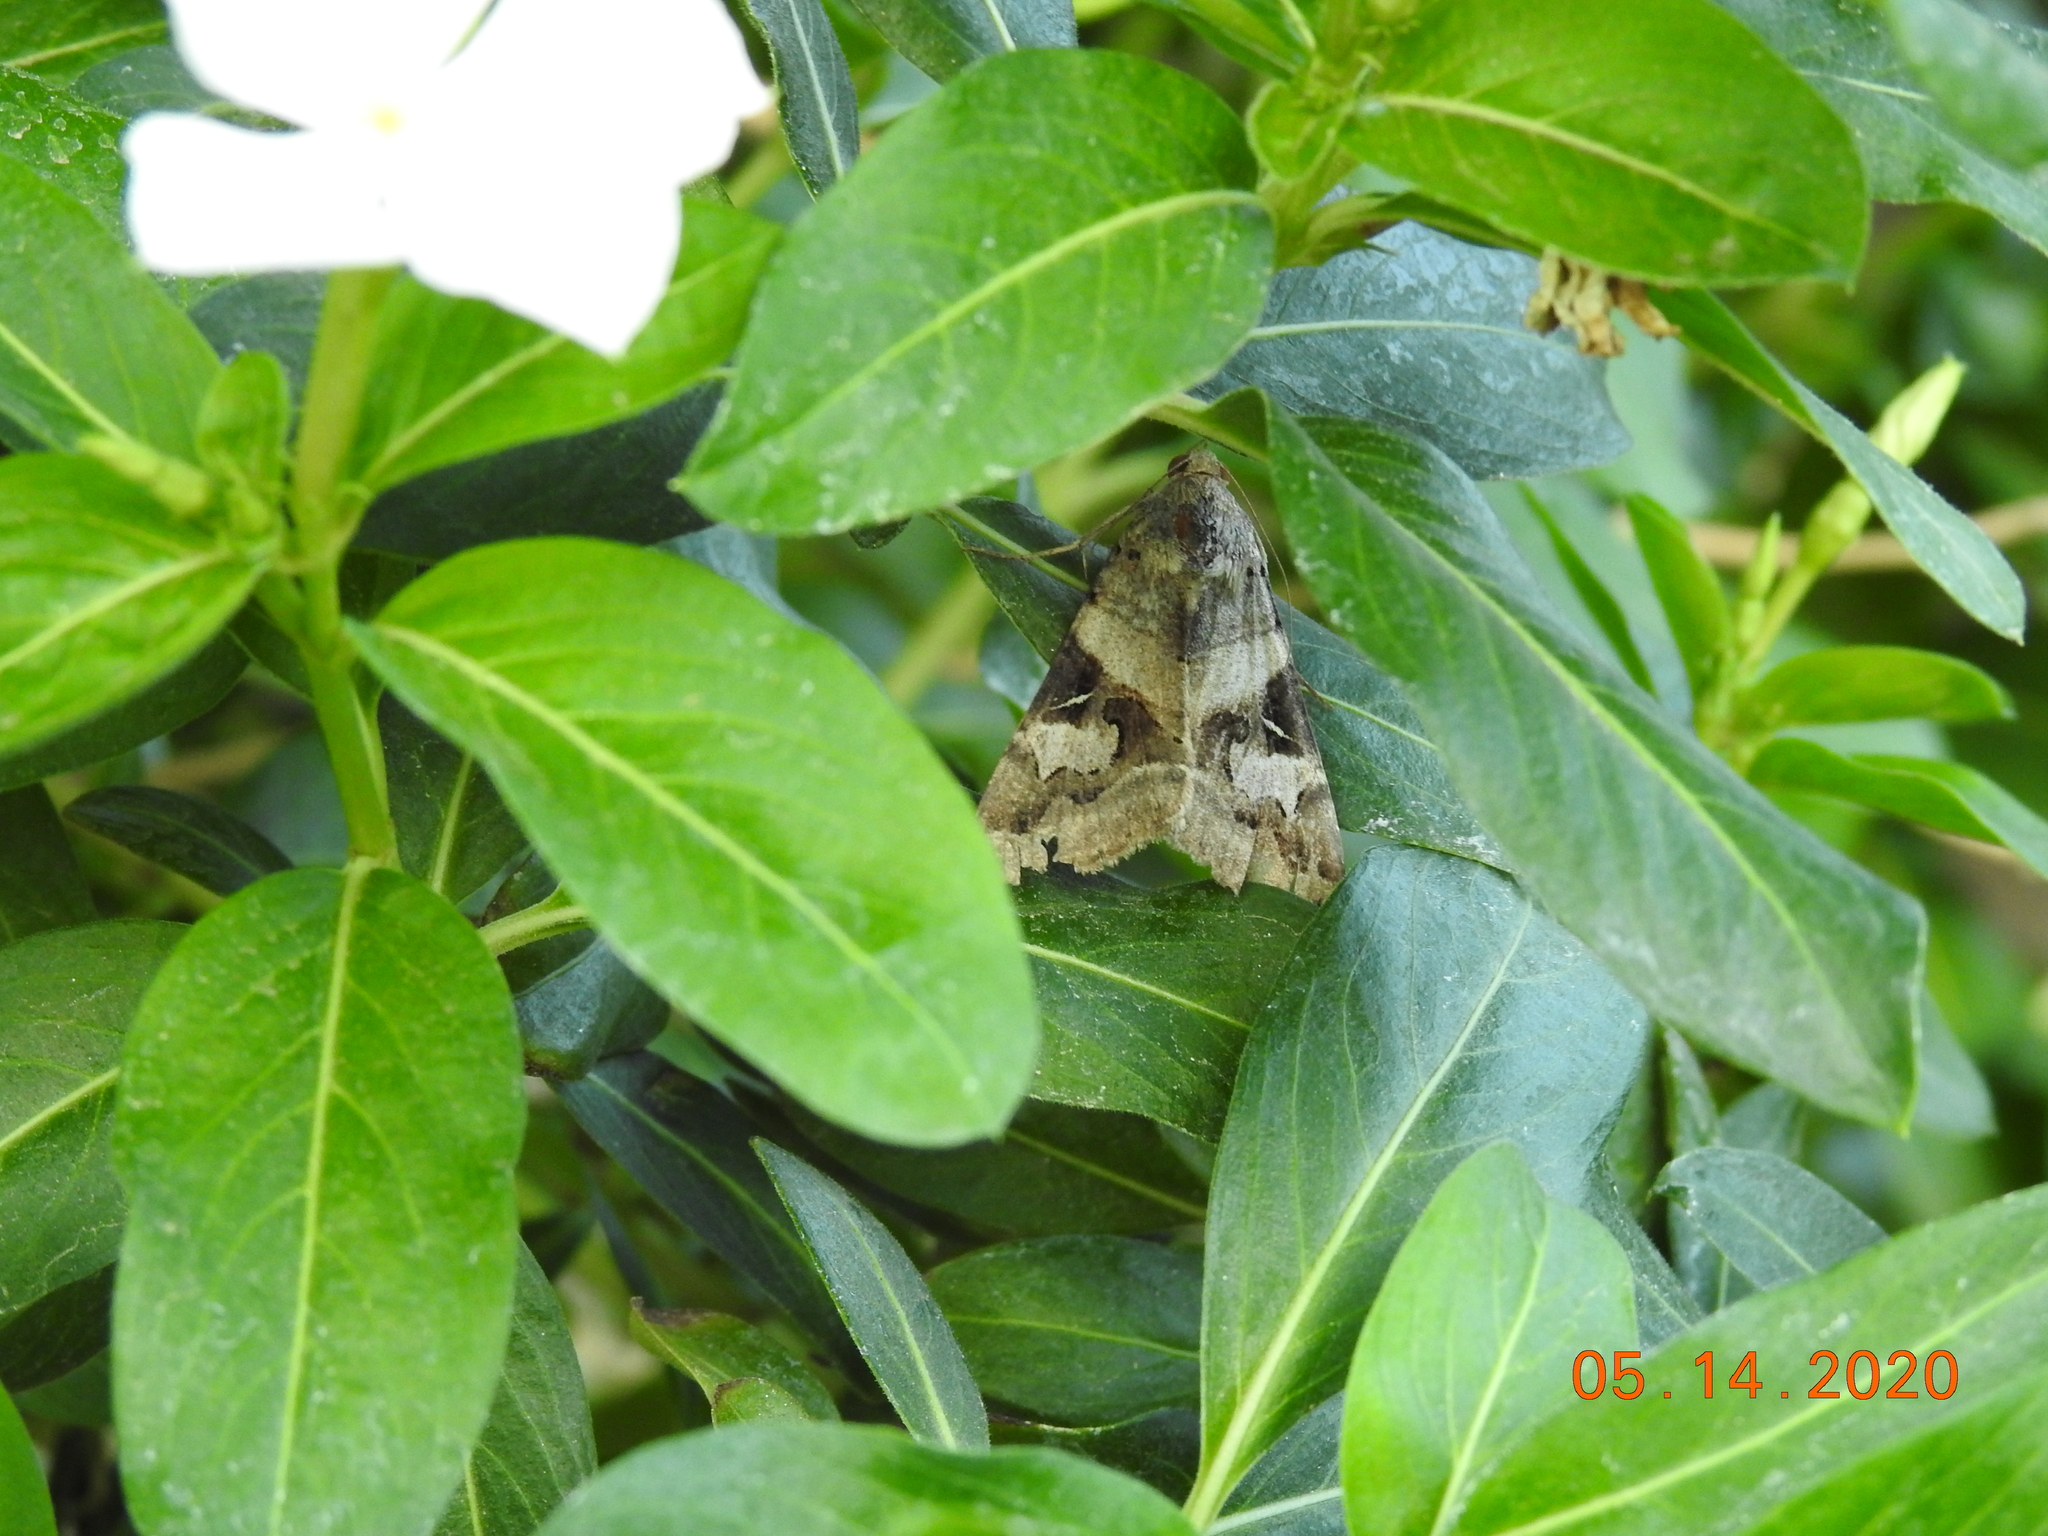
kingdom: Animalia
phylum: Arthropoda
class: Insecta
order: Lepidoptera
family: Erebidae
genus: Melipotis
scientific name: Melipotis indomita
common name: Moth
